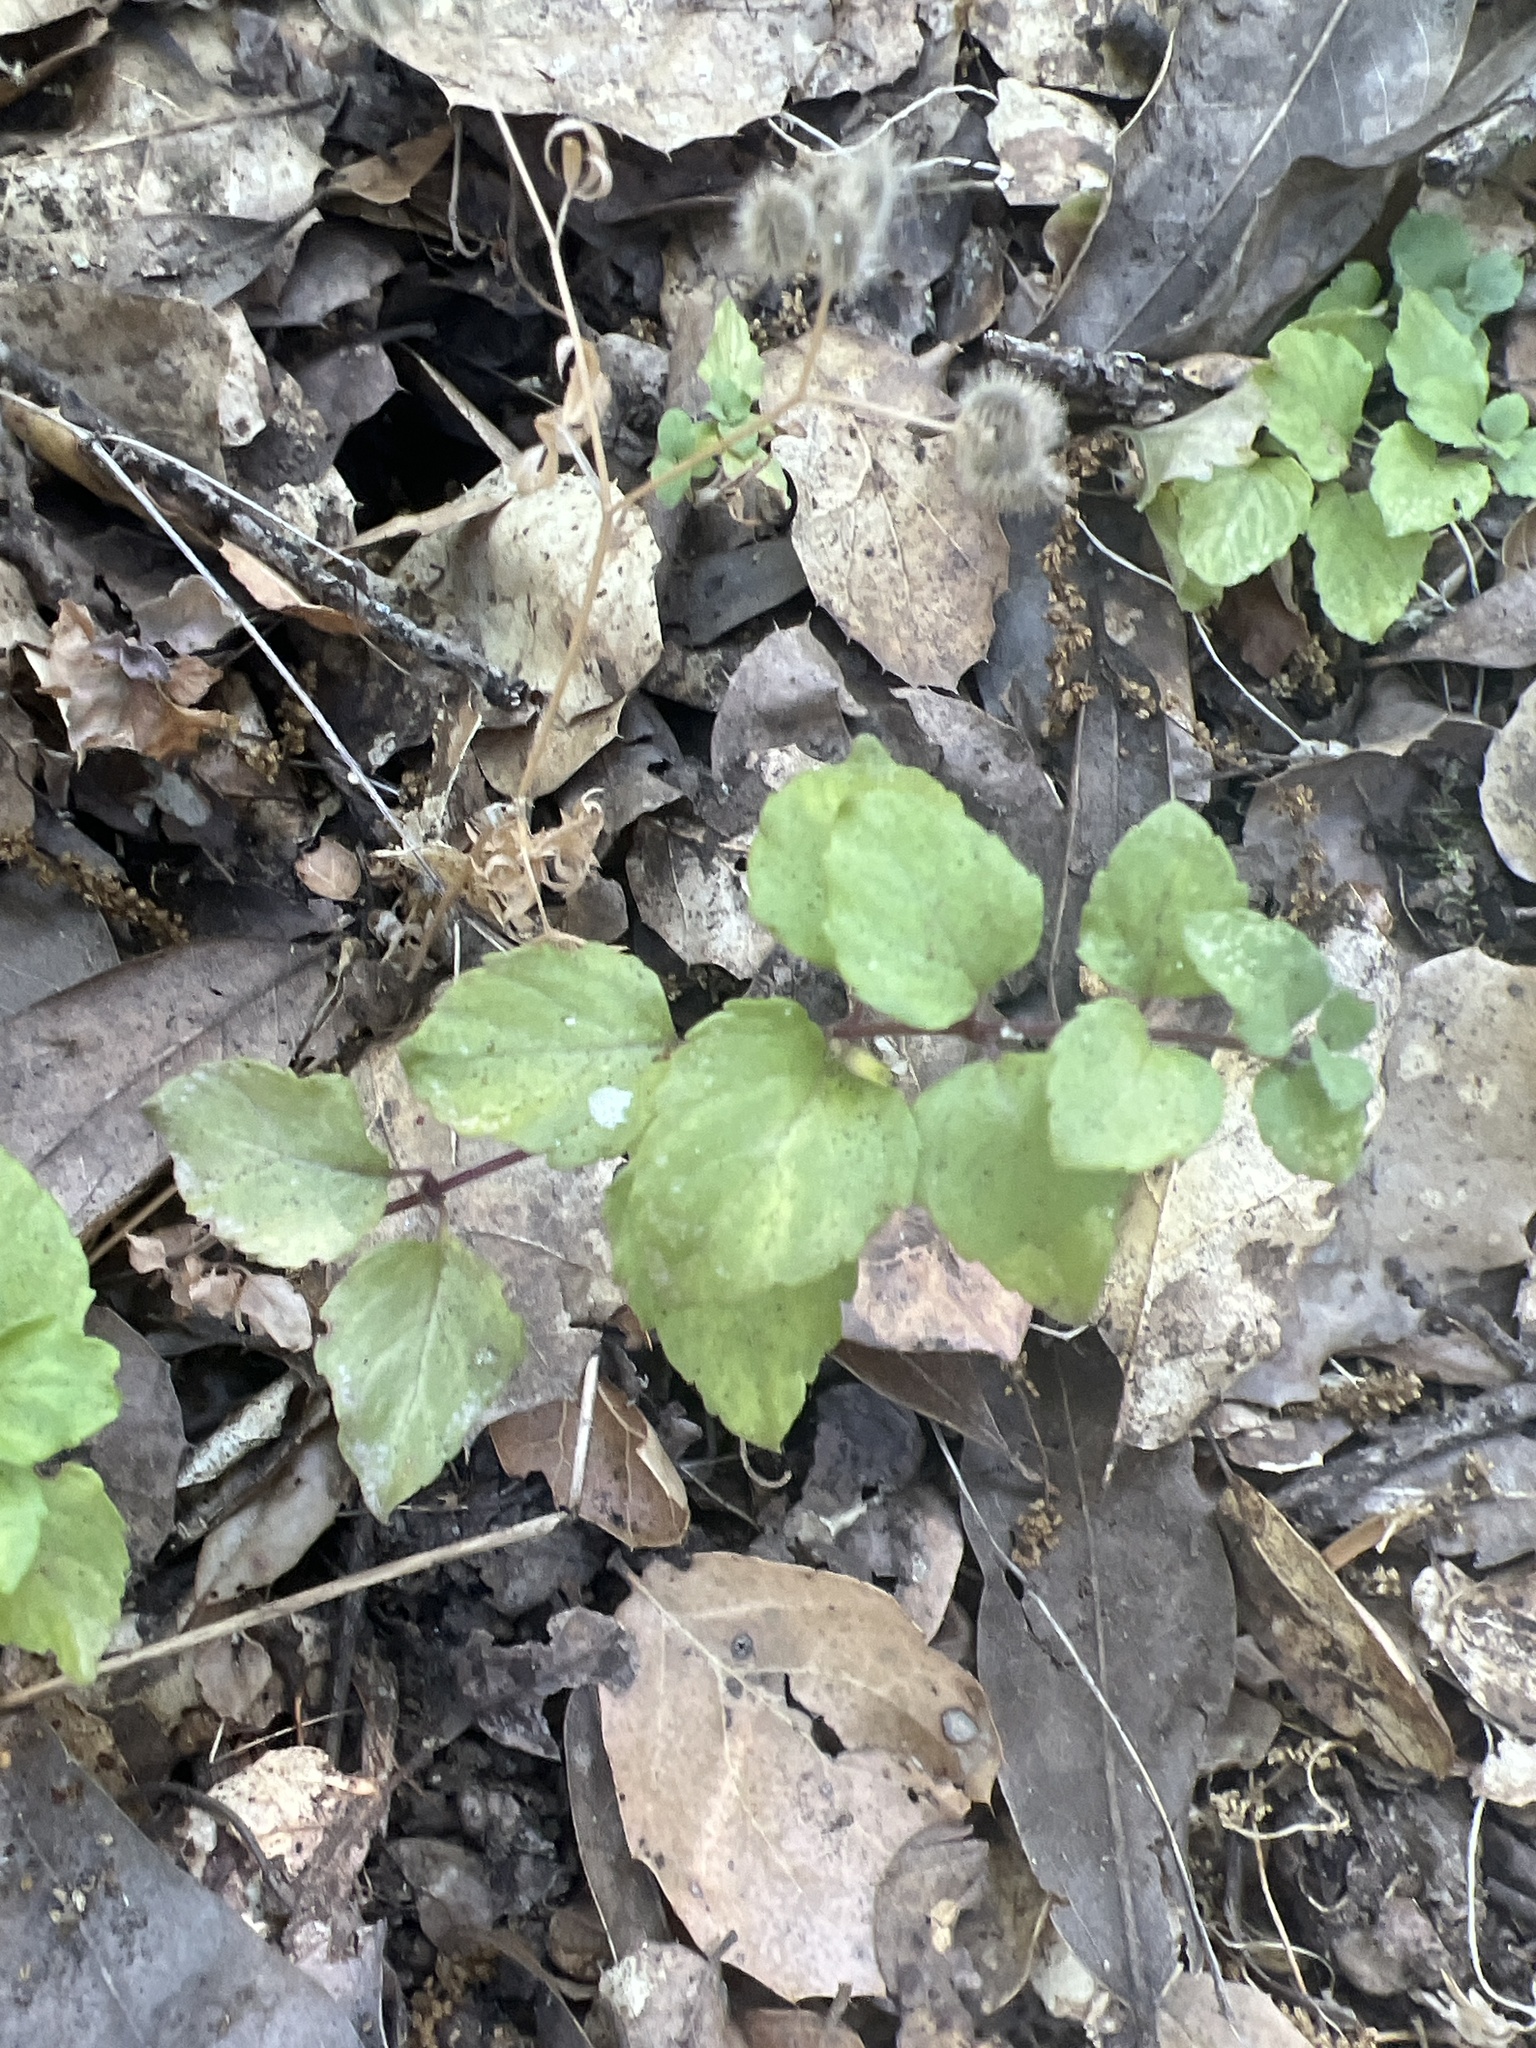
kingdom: Plantae
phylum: Tracheophyta
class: Magnoliopsida
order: Lamiales
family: Lamiaceae
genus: Micromeria
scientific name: Micromeria douglasii
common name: Yerba buena
